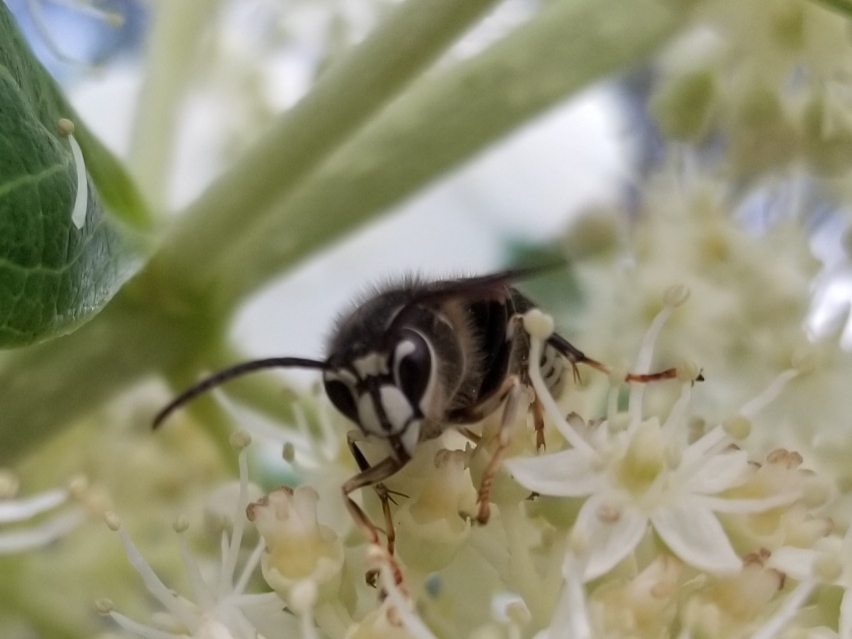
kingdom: Animalia
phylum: Arthropoda
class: Insecta
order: Hymenoptera
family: Vespidae
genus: Dolichovespula
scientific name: Dolichovespula maculata
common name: Bald-faced hornet
